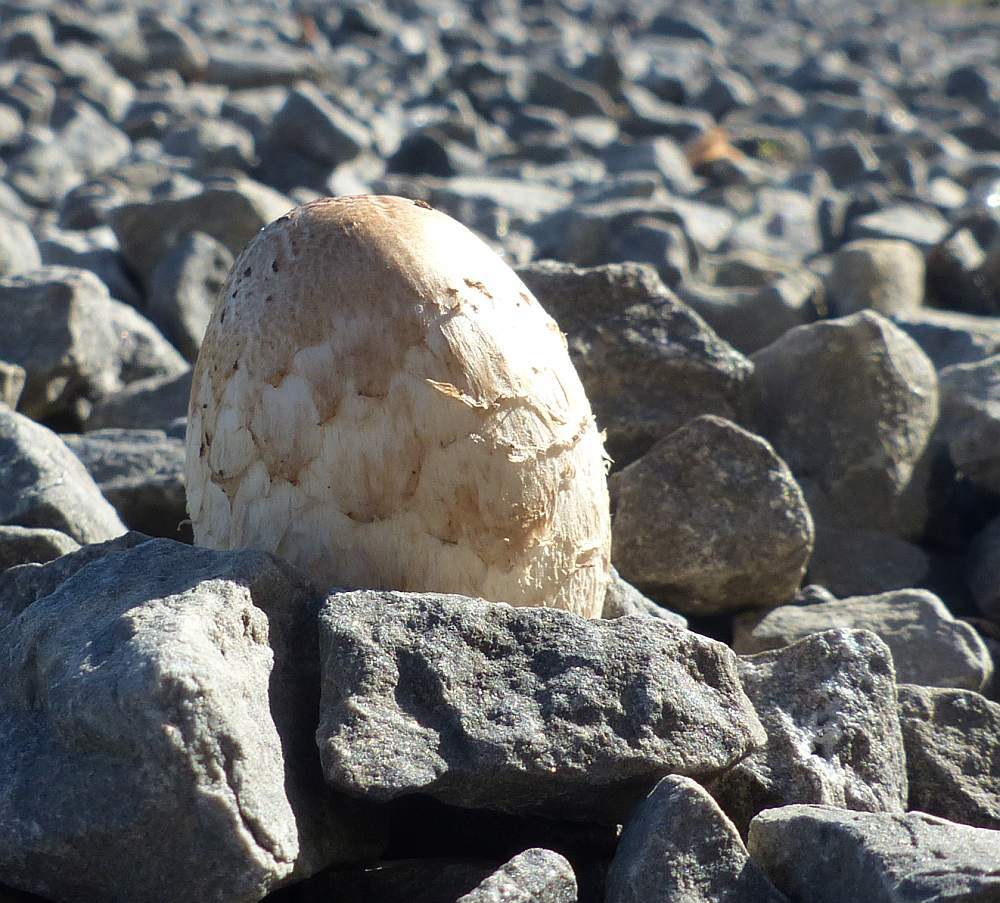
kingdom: Fungi
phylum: Basidiomycota
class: Agaricomycetes
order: Agaricales
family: Agaricaceae
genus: Coprinus
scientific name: Coprinus comatus
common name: Lawyer's wig
